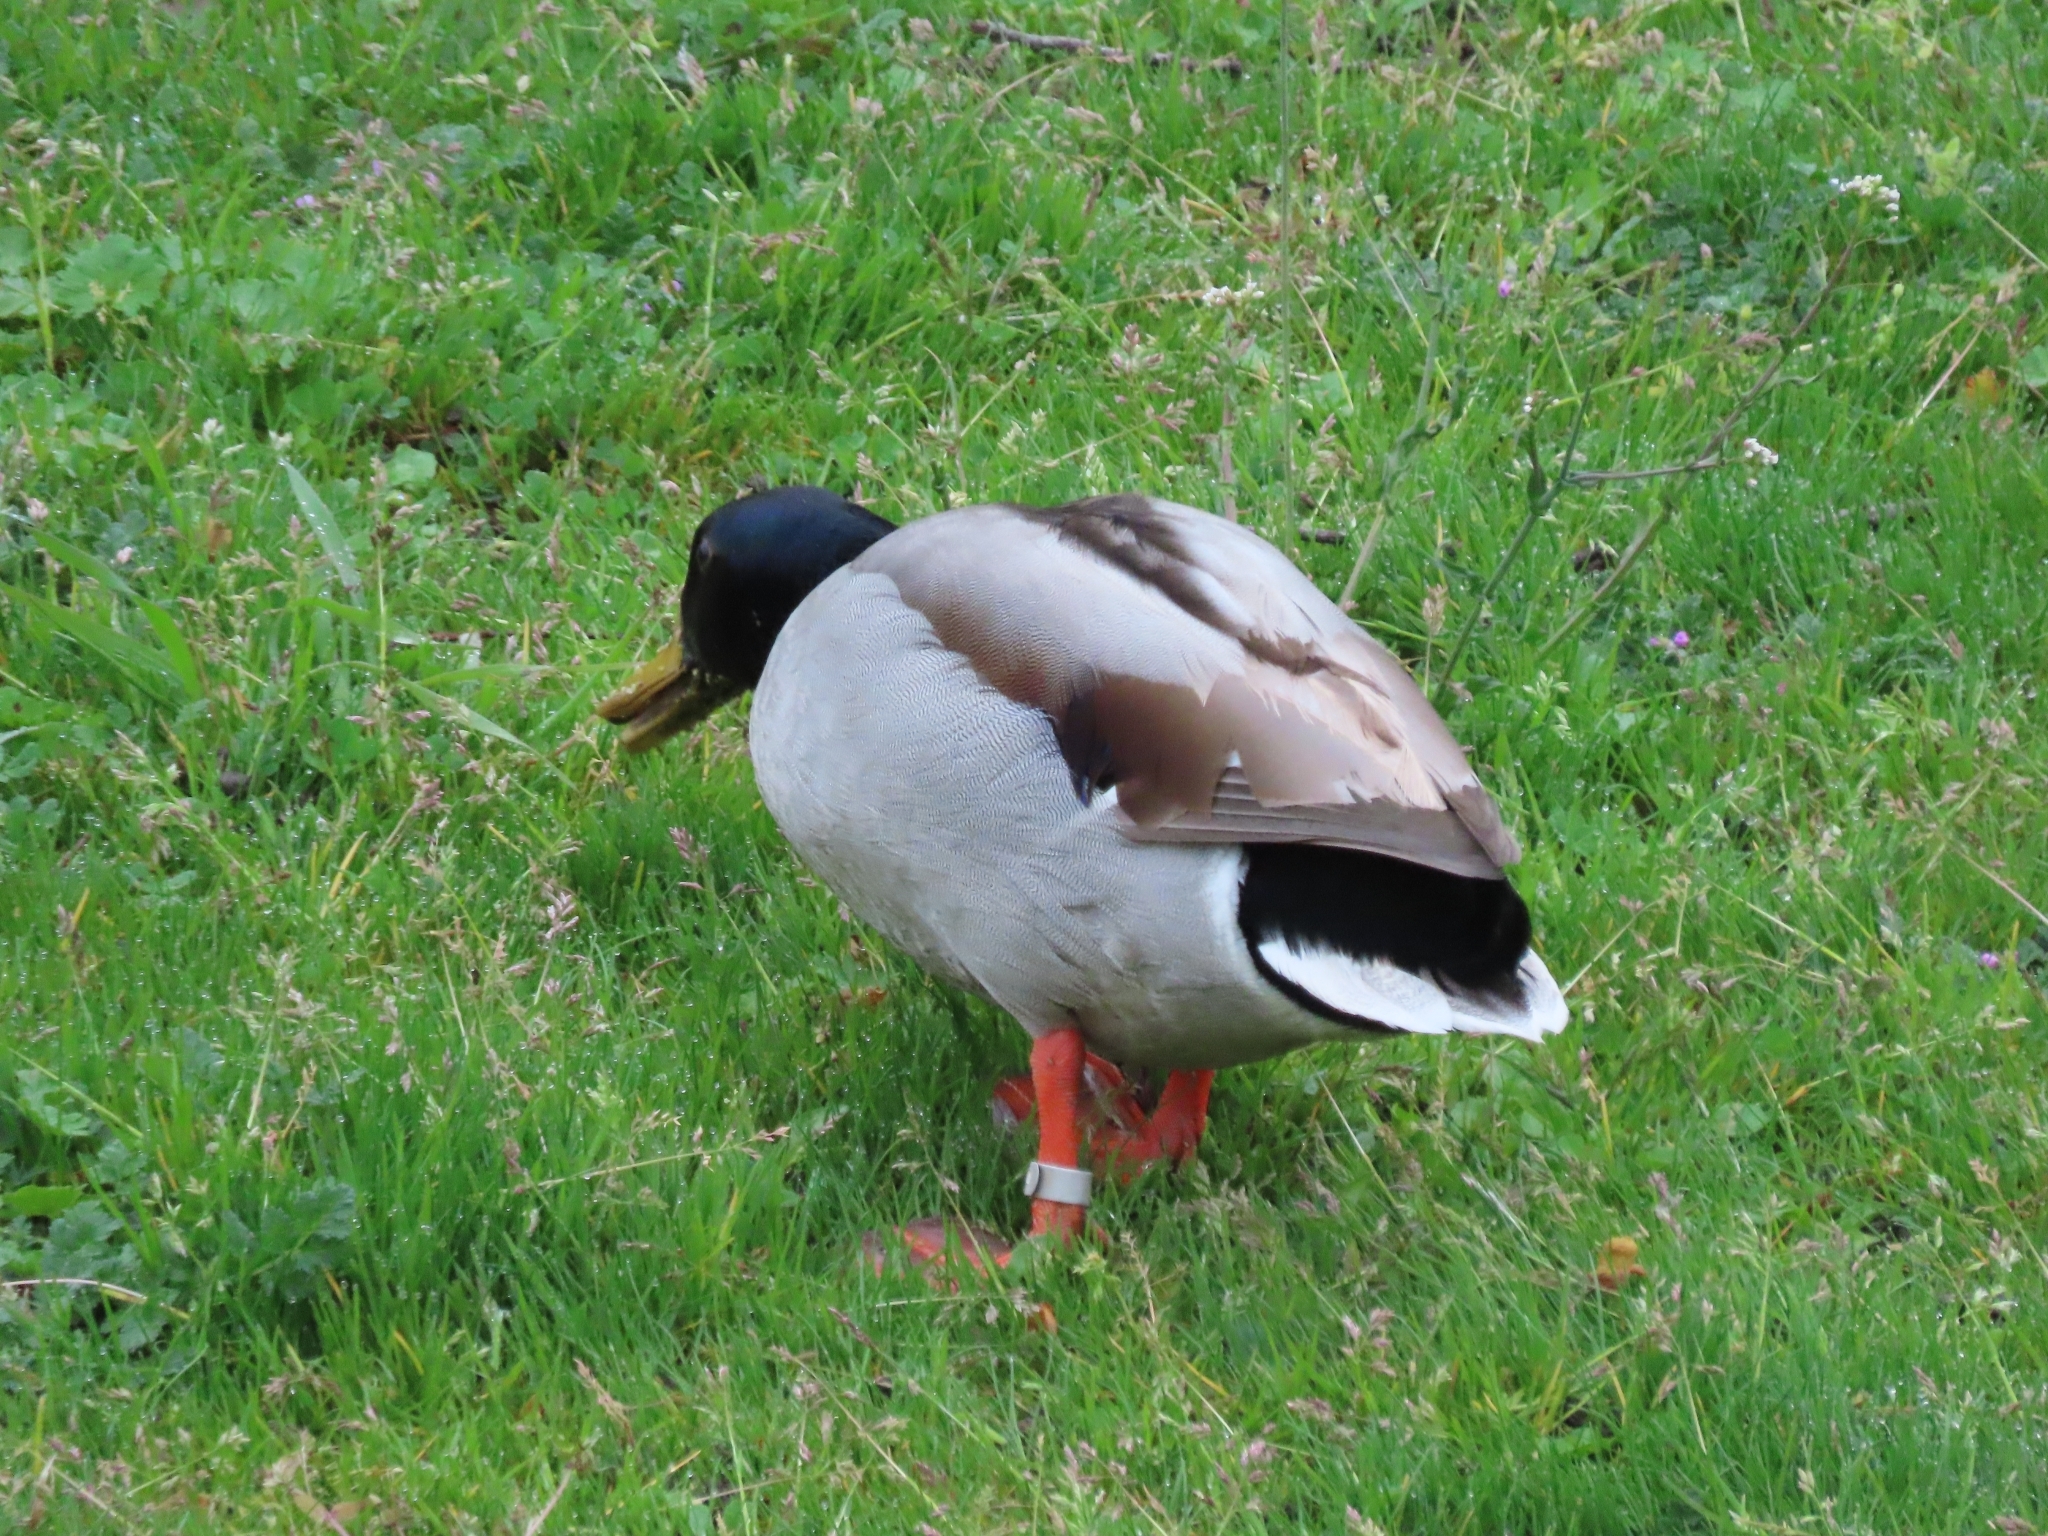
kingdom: Animalia
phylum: Chordata
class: Aves
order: Anseriformes
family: Anatidae
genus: Anas
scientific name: Anas platyrhynchos
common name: Mallard
